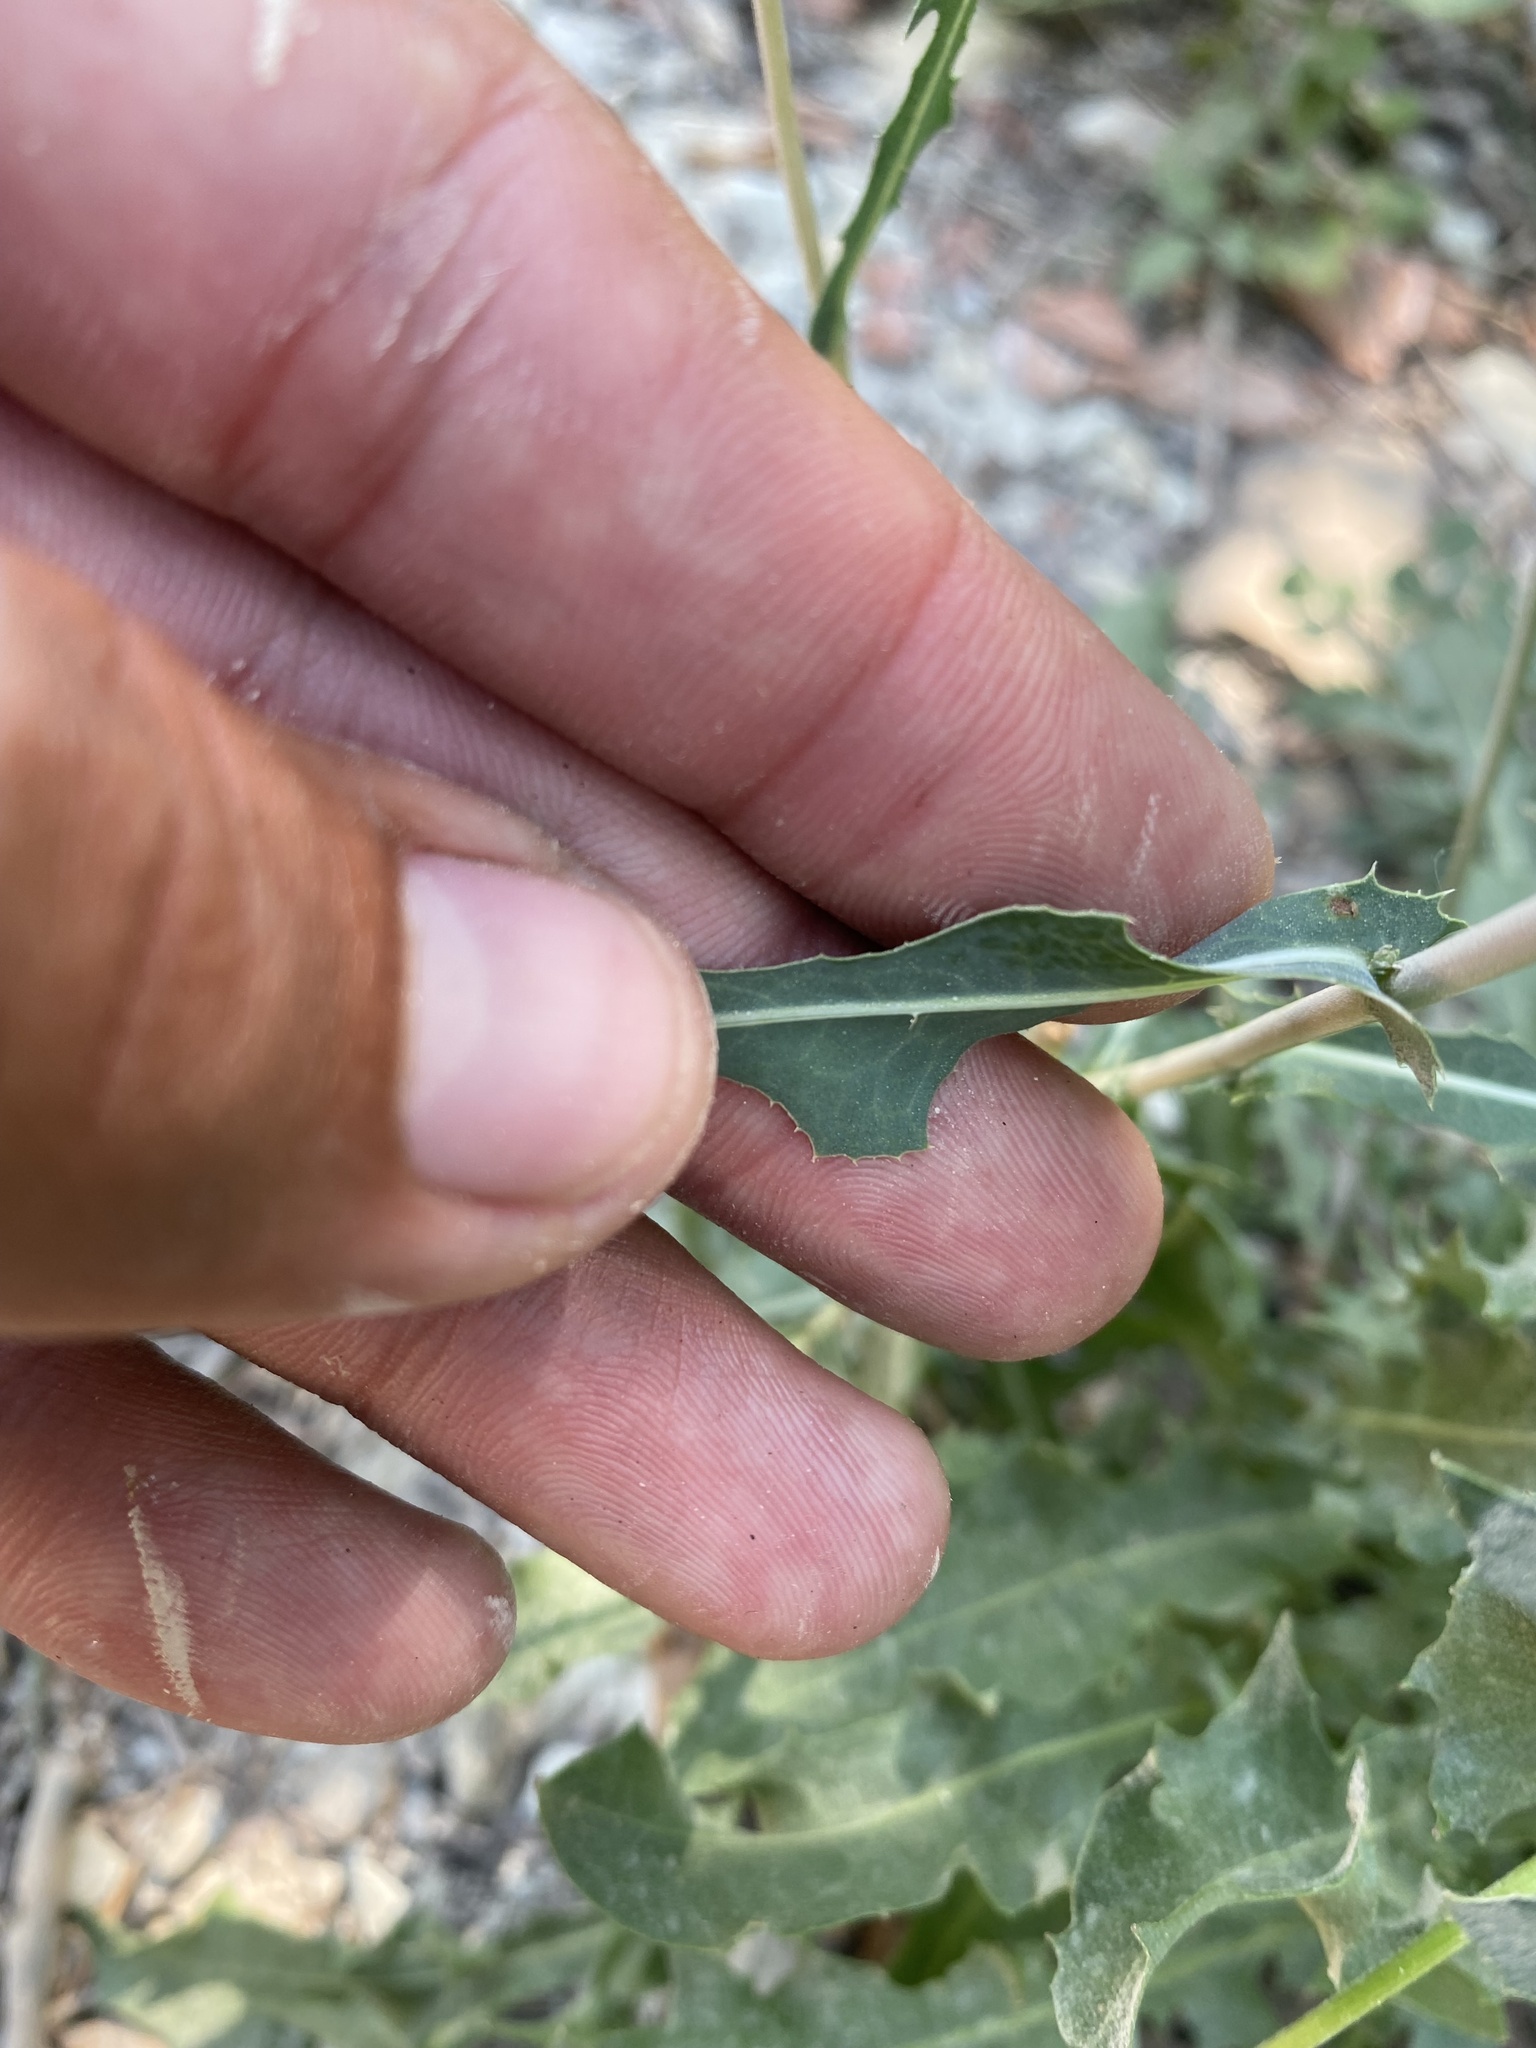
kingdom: Plantae
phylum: Tracheophyta
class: Magnoliopsida
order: Asterales
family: Asteraceae
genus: Lactuca
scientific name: Lactuca serriola
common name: Prickly lettuce
